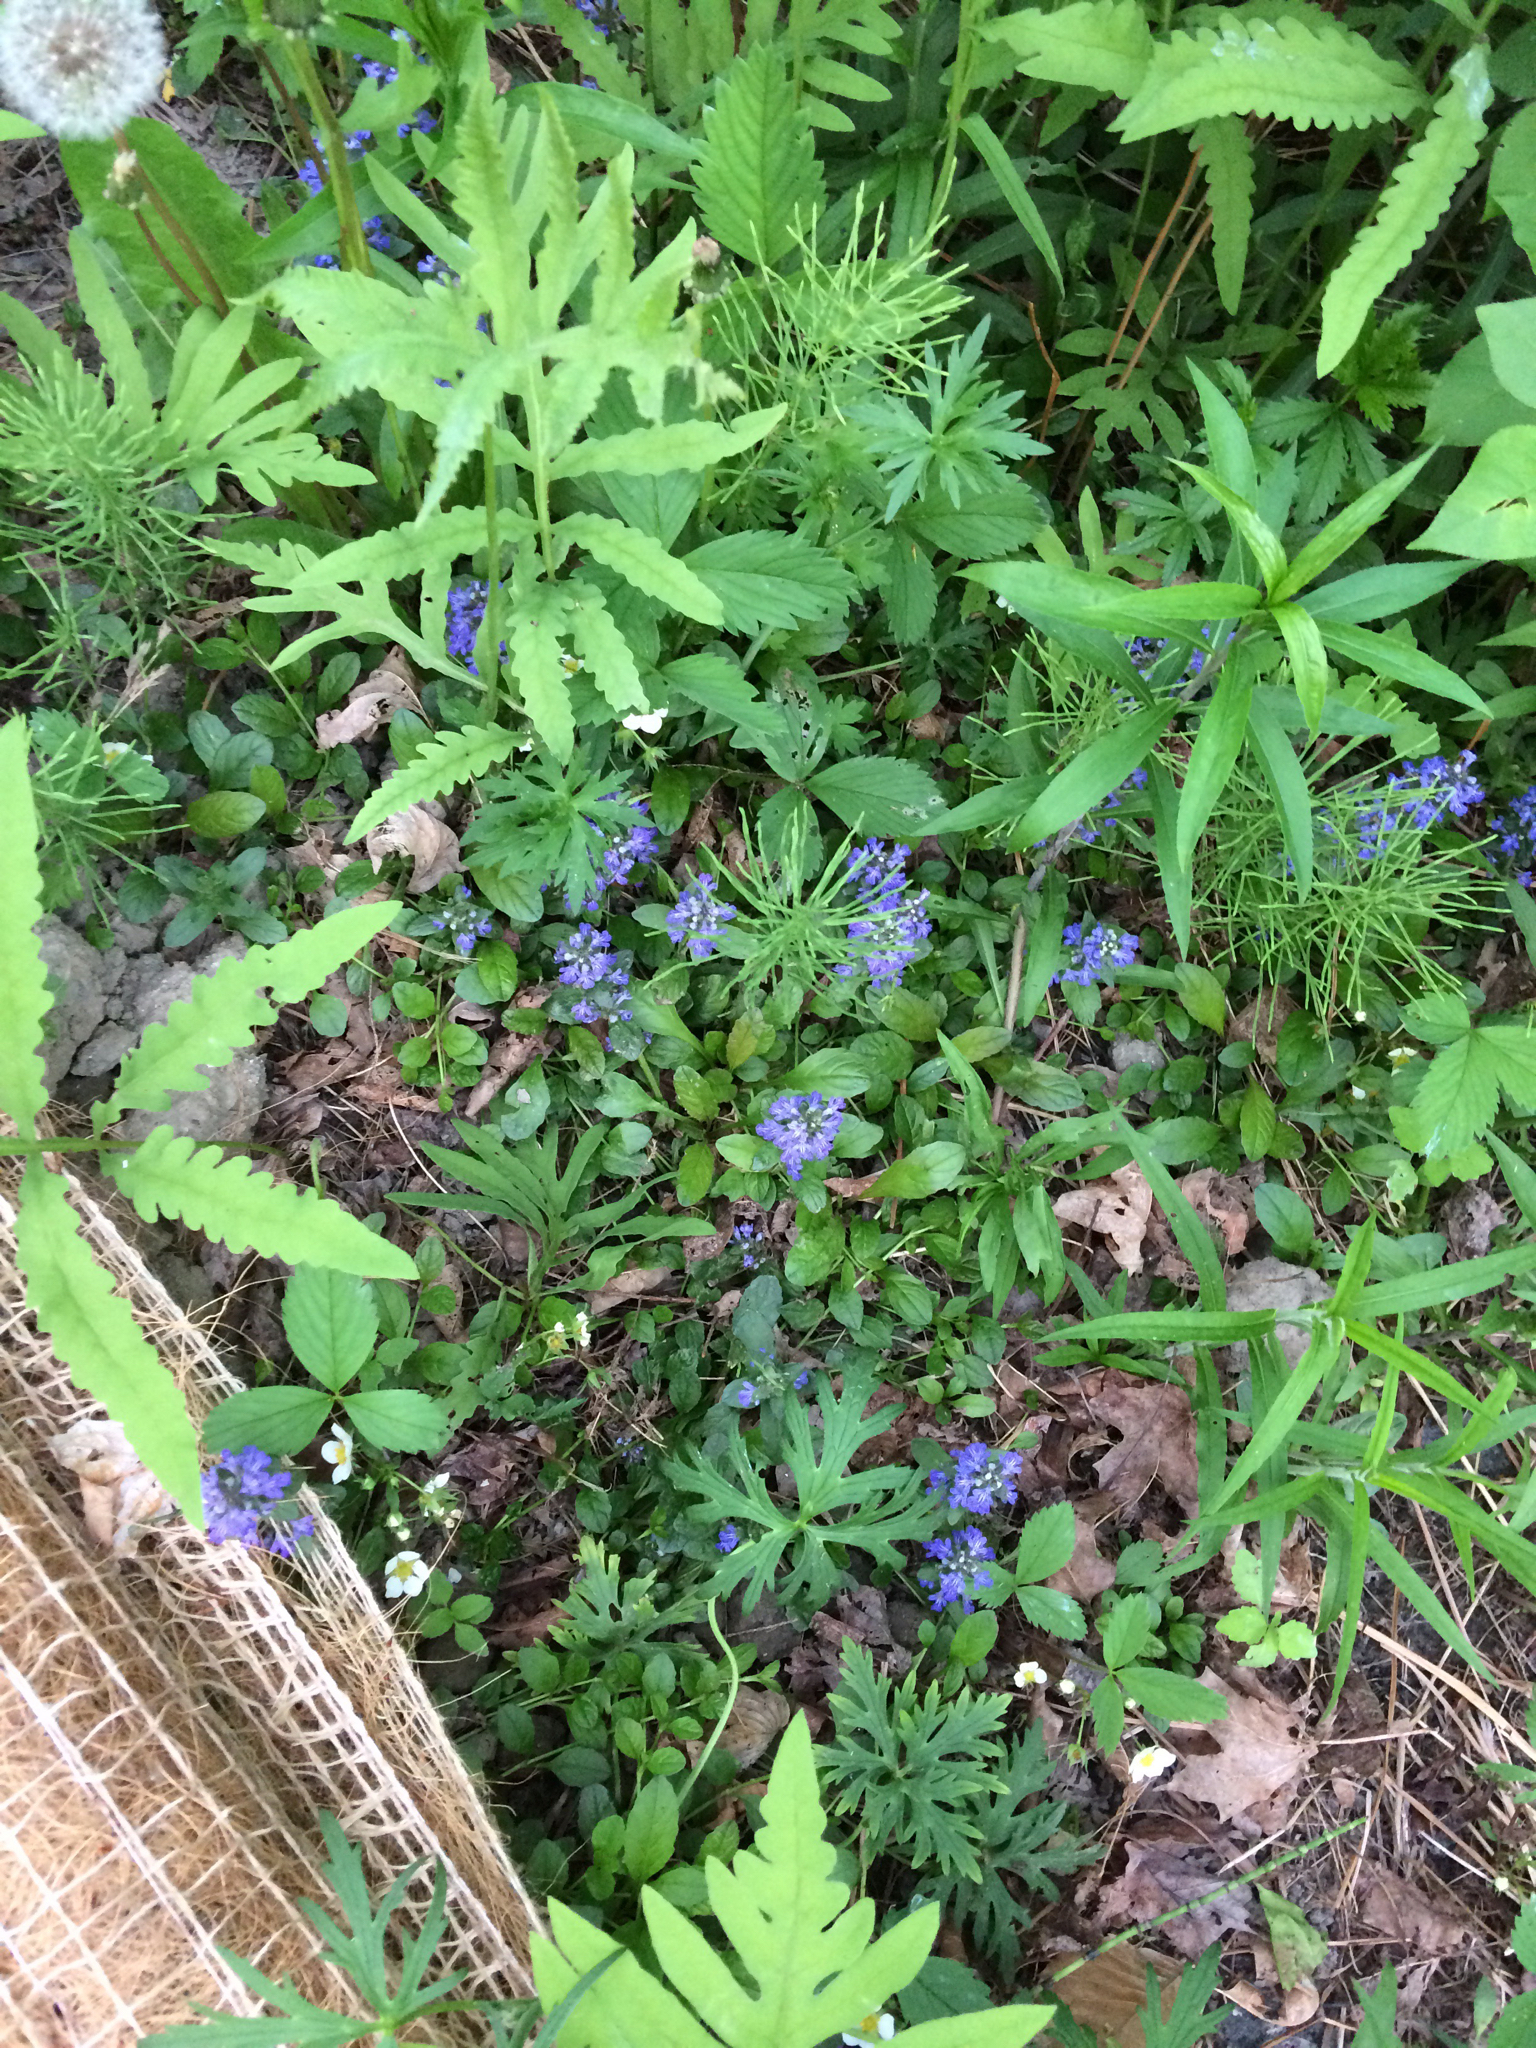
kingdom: Plantae
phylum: Tracheophyta
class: Magnoliopsida
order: Lamiales
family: Lamiaceae
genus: Ajuga
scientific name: Ajuga reptans
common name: Bugle
